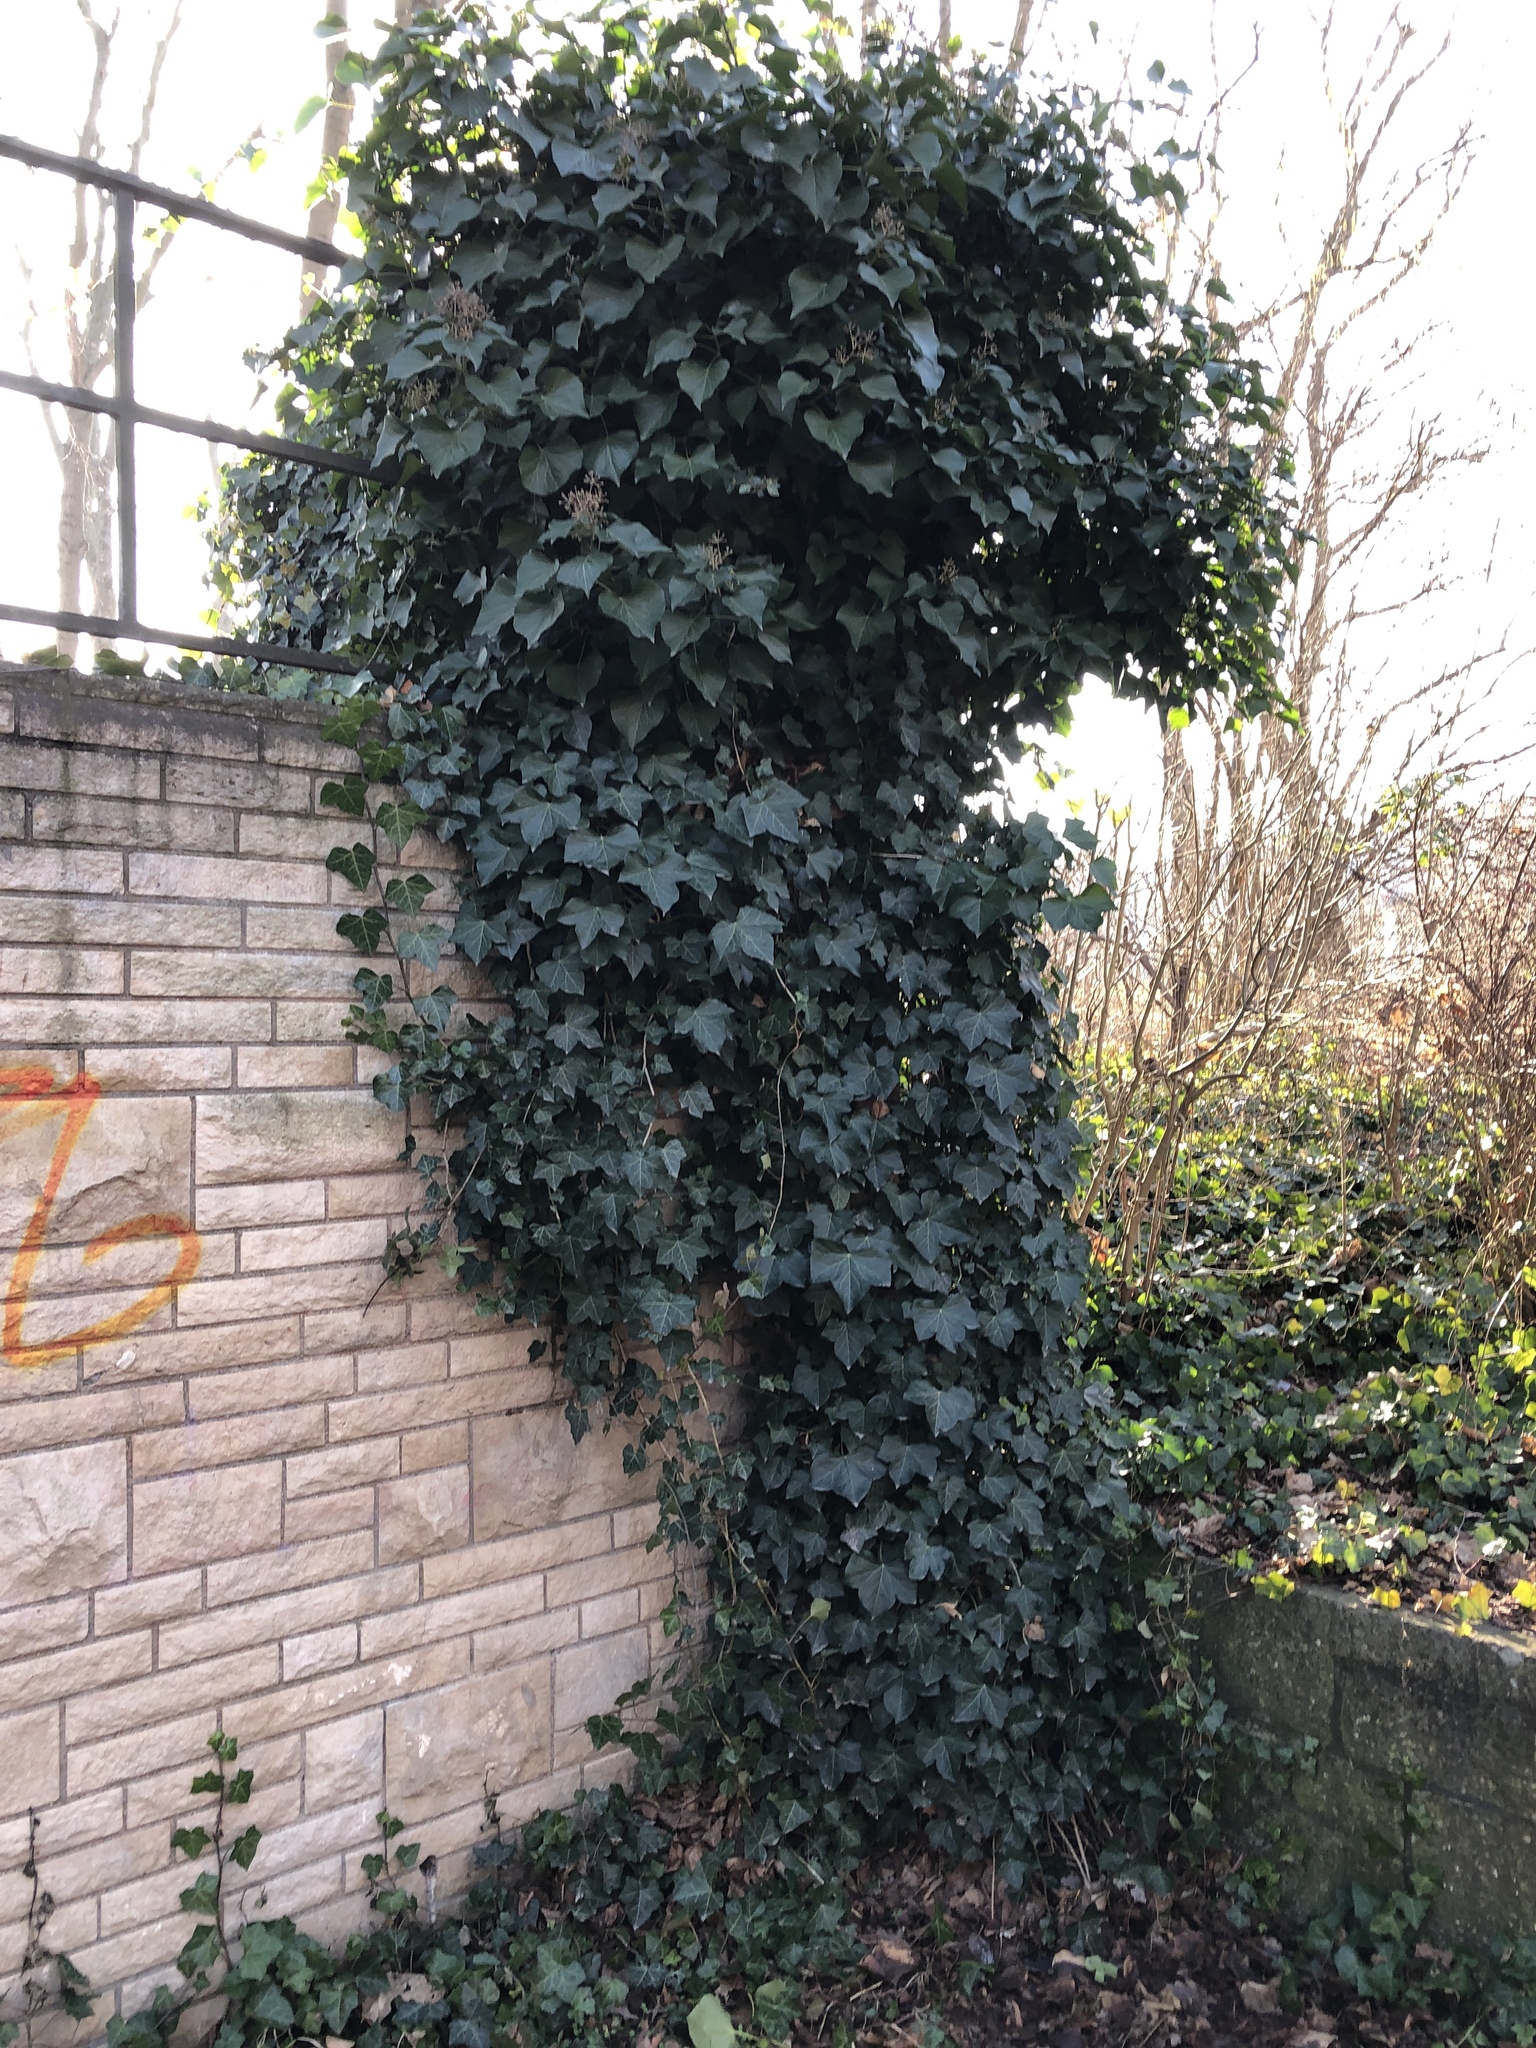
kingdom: Plantae
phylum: Tracheophyta
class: Magnoliopsida
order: Apiales
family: Araliaceae
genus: Hedera
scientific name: Hedera helix
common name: Ivy
